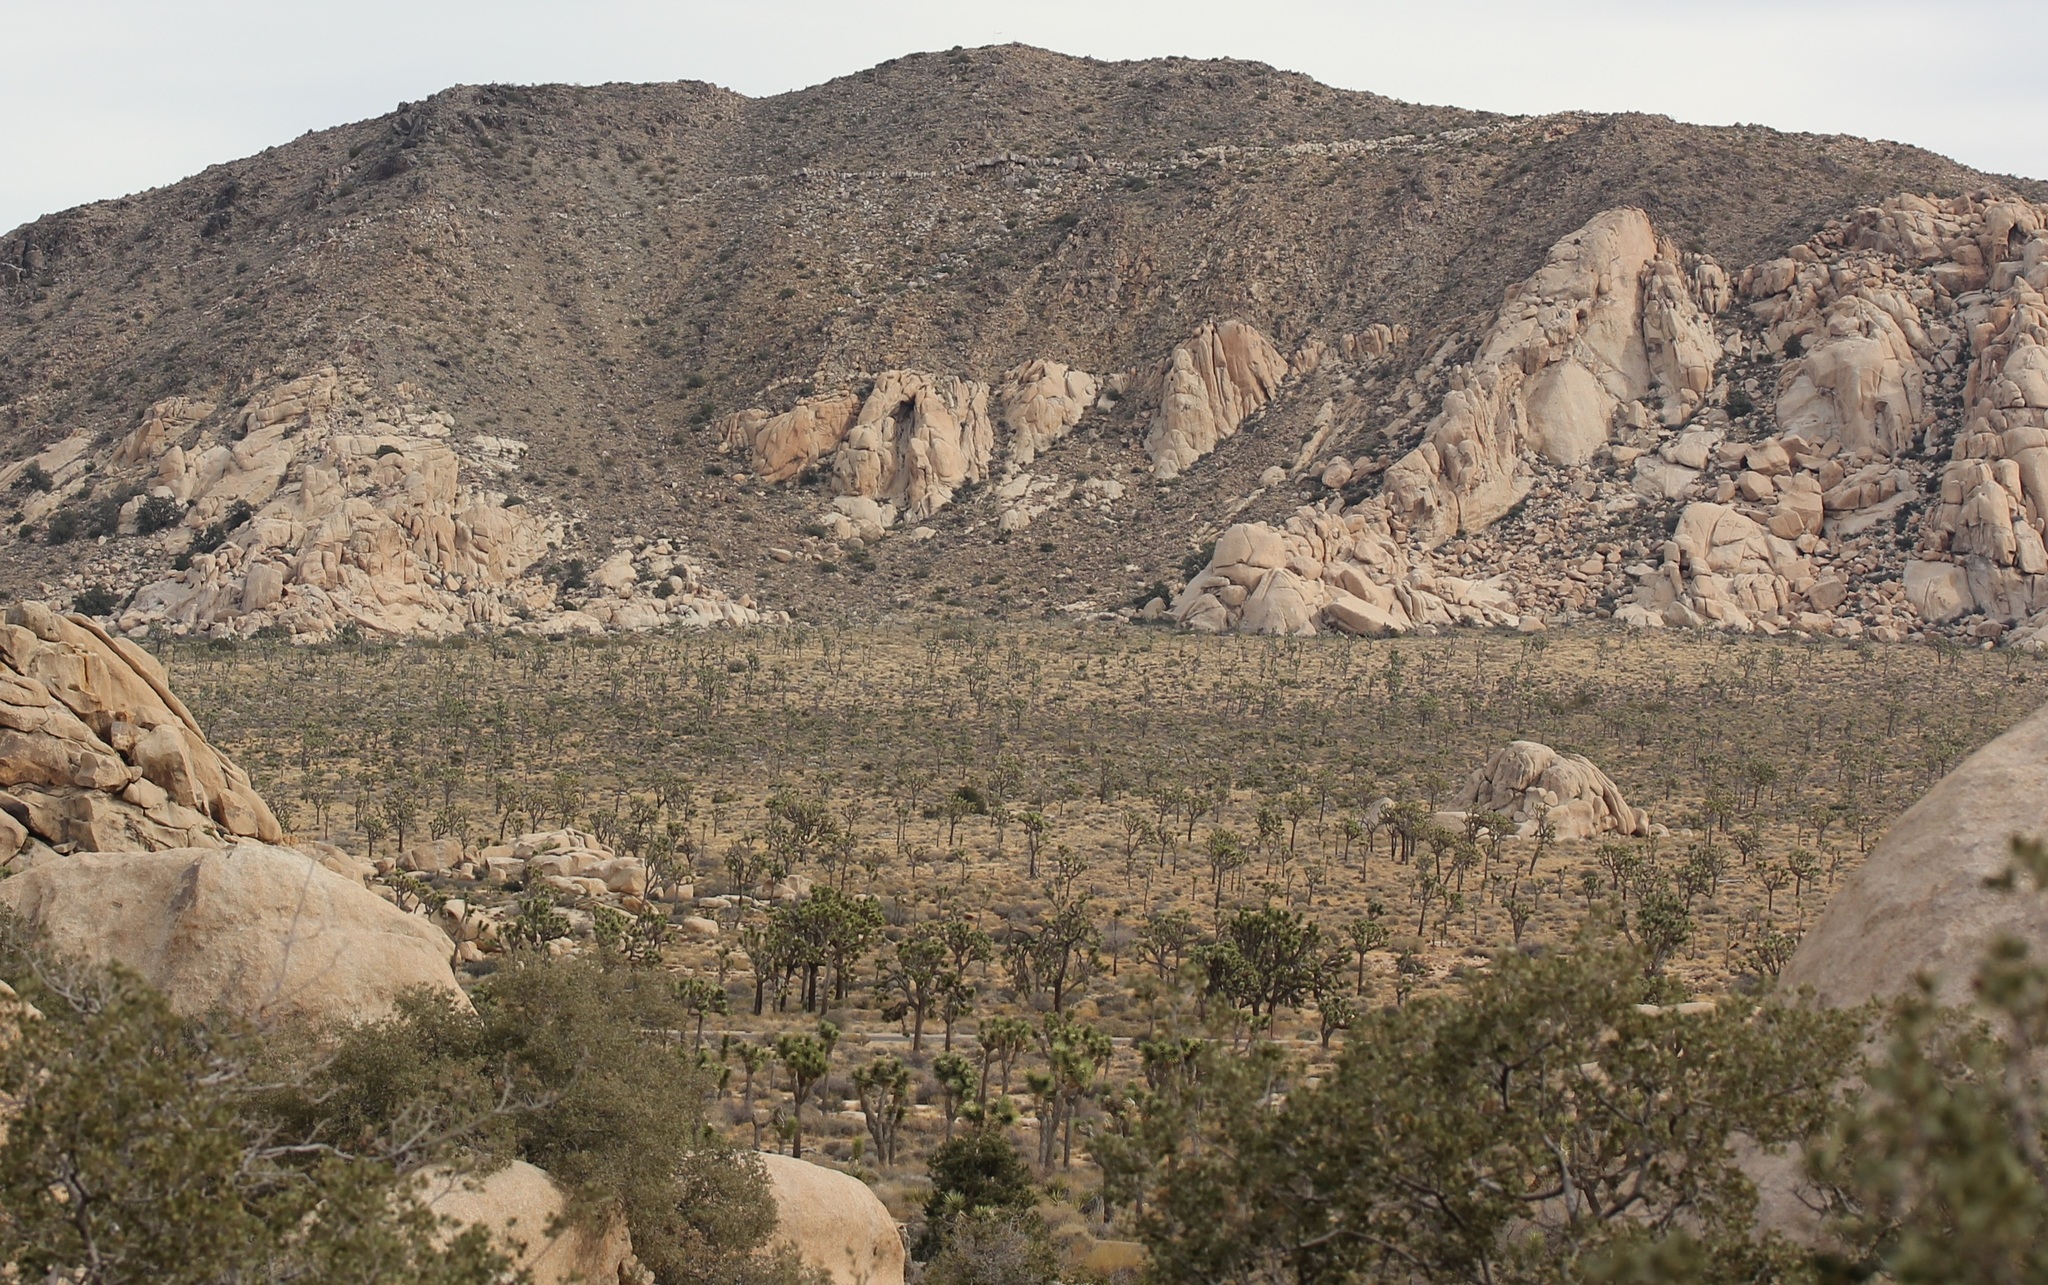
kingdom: Plantae
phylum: Tracheophyta
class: Liliopsida
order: Asparagales
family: Asparagaceae
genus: Yucca
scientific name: Yucca brevifolia
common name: Joshua tree
